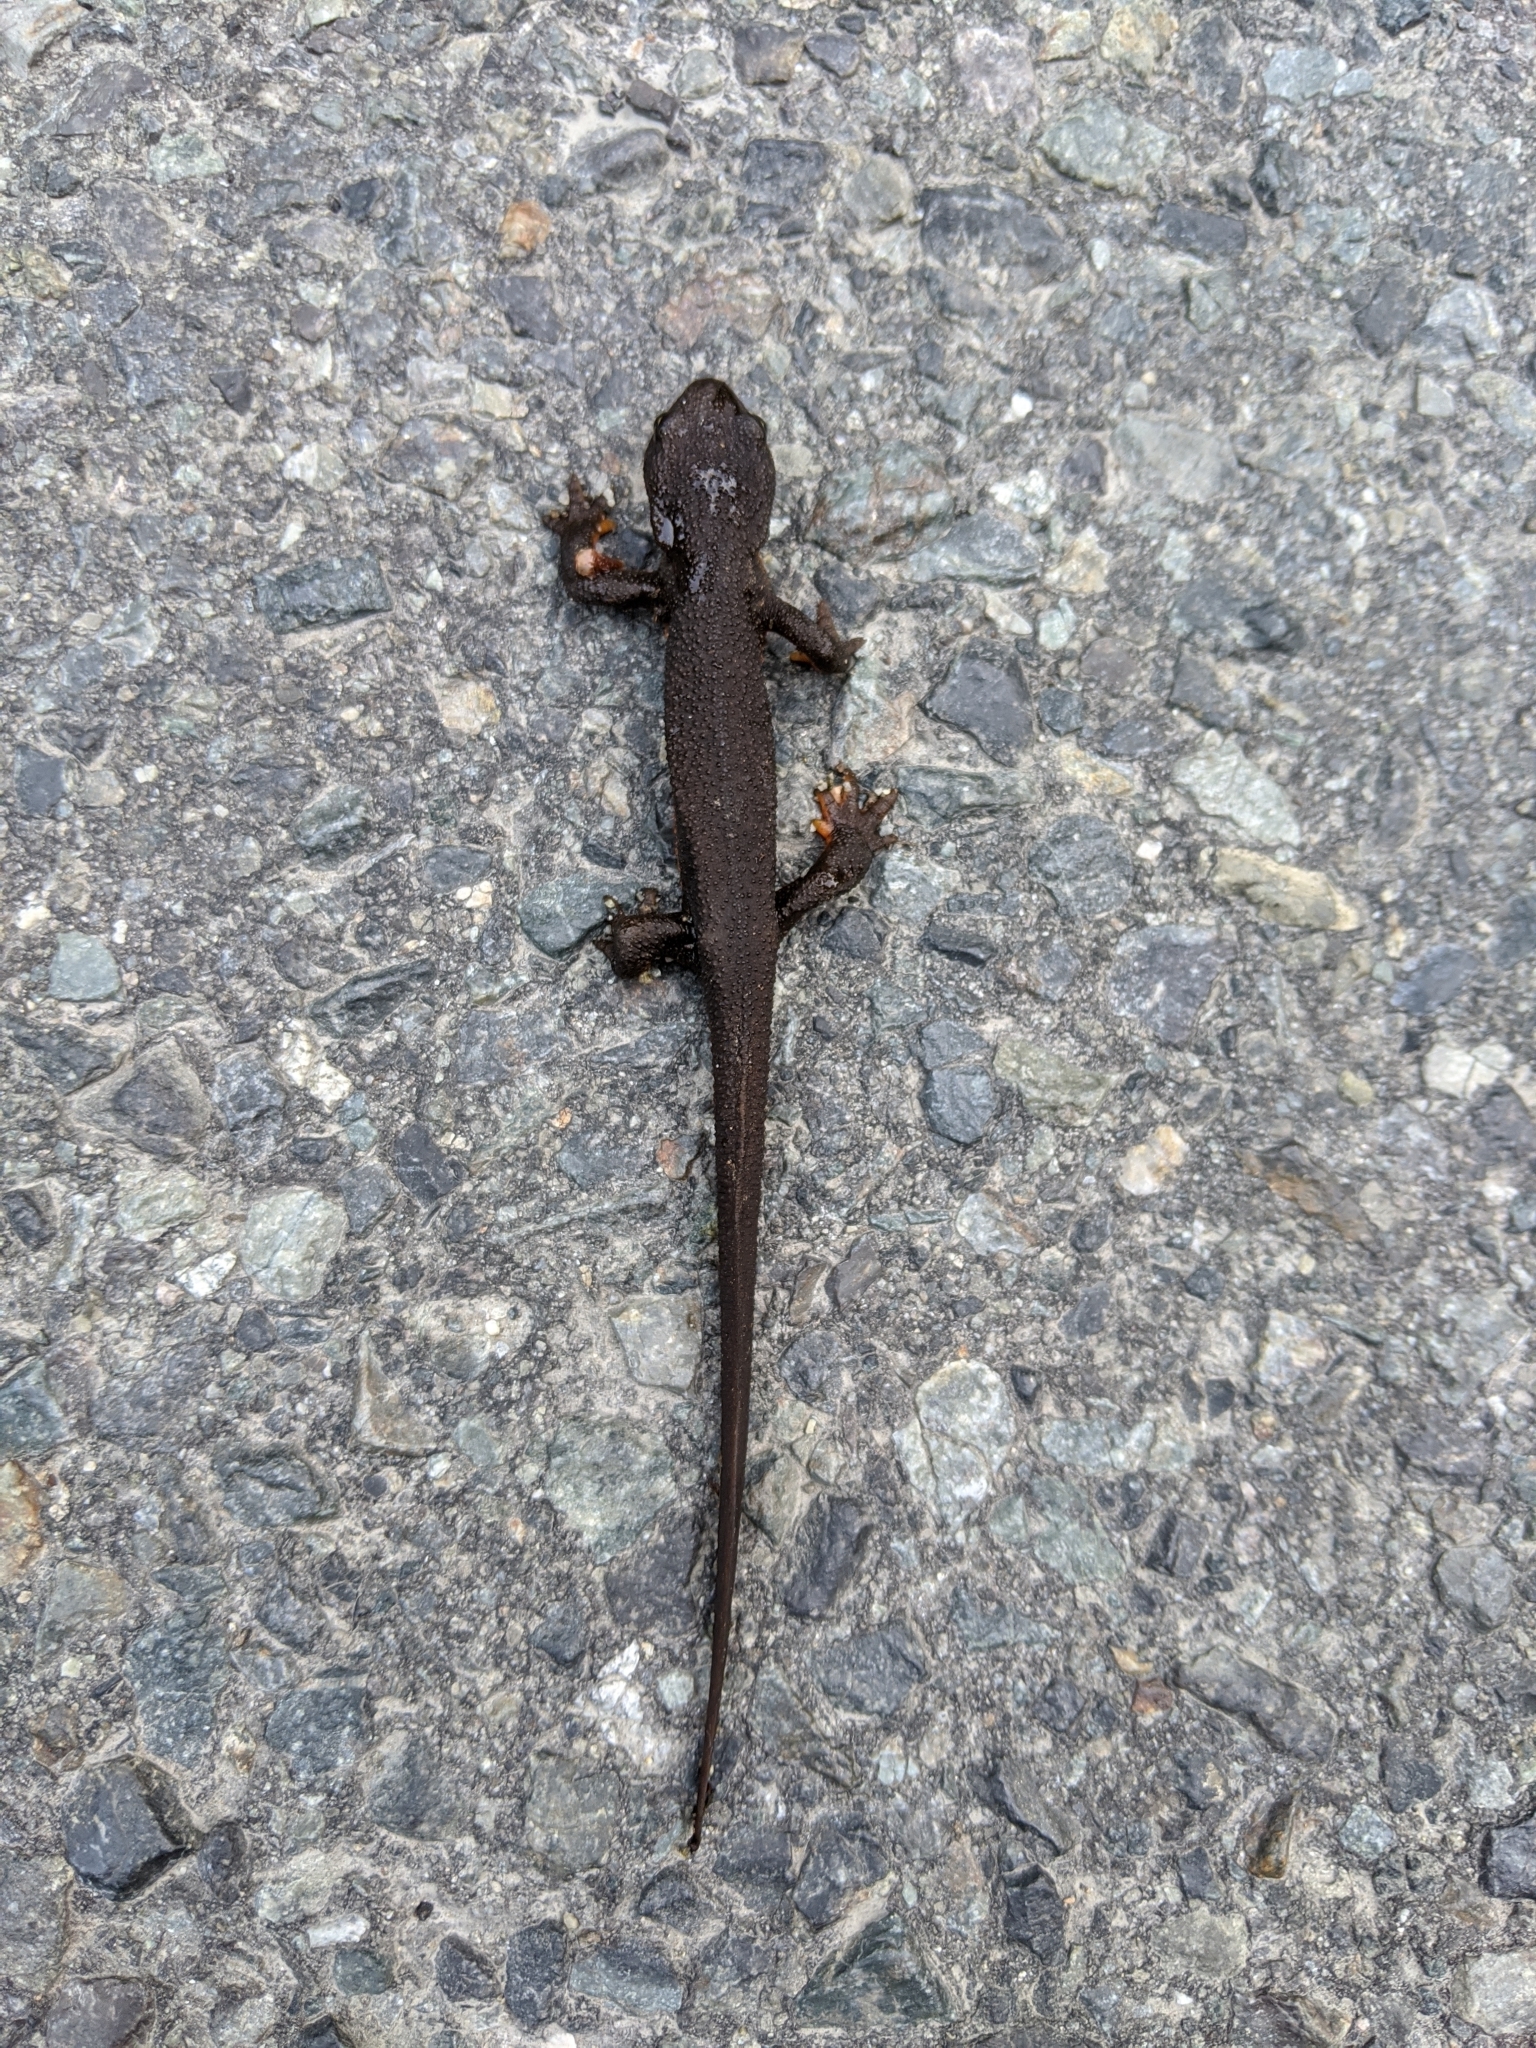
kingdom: Animalia
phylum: Chordata
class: Amphibia
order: Caudata
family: Salamandridae
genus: Taricha
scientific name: Taricha granulosa
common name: Roughskin newt
